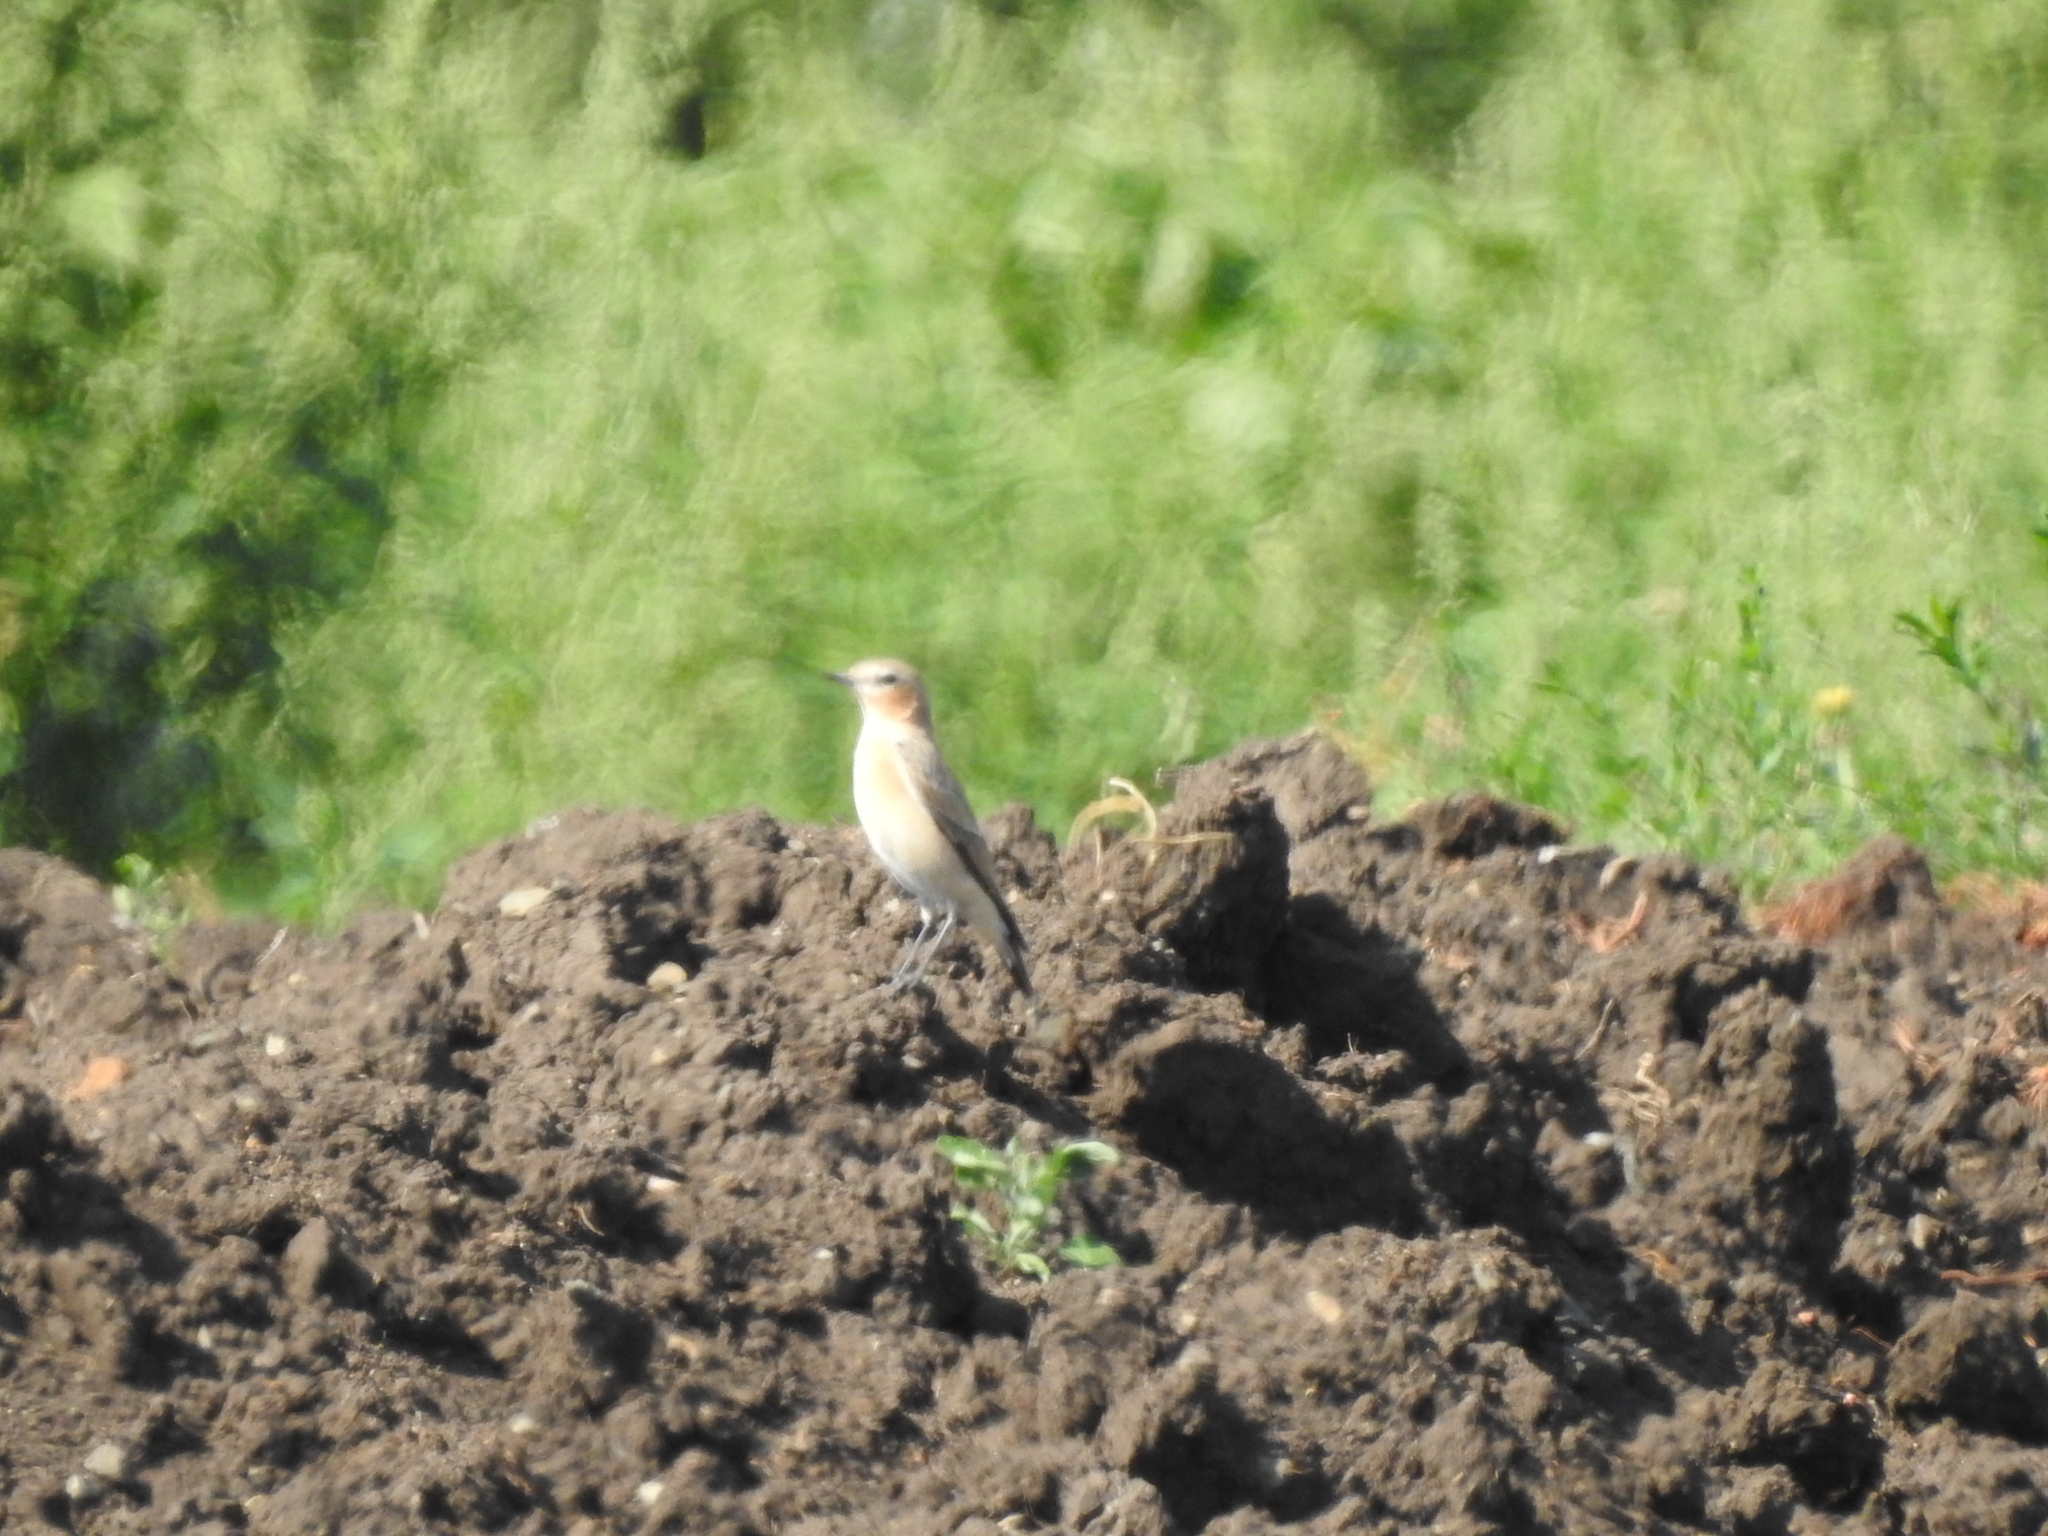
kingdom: Animalia
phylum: Chordata
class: Aves
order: Passeriformes
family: Muscicapidae
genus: Oenanthe
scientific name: Oenanthe oenanthe
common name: Northern wheatear
